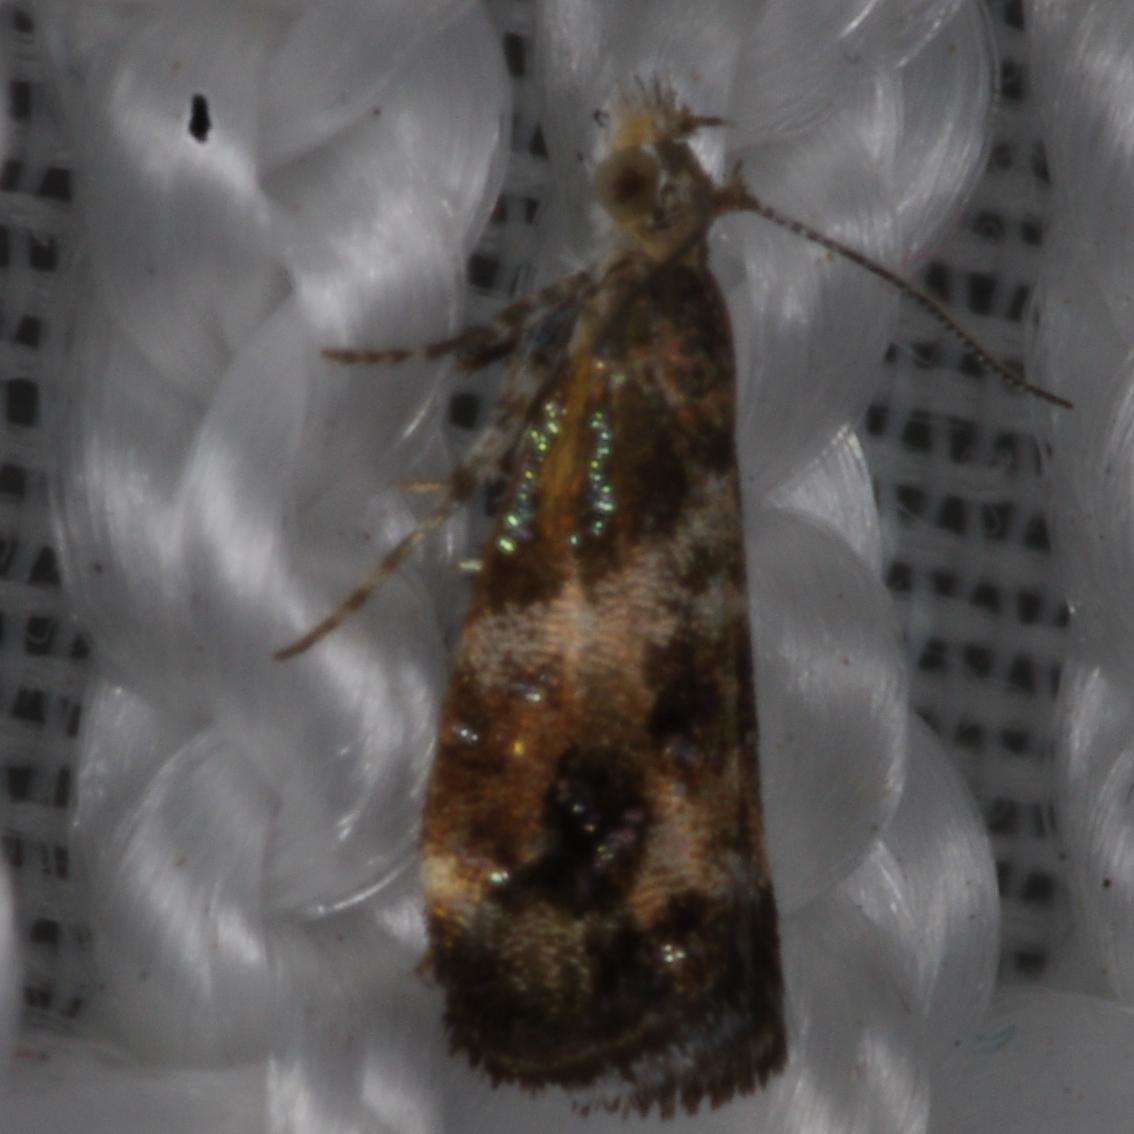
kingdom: Animalia
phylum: Arthropoda
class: Insecta
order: Lepidoptera
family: Choreutidae
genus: Tebenna
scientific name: Tebenna micalis
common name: Vagrant twitcher
